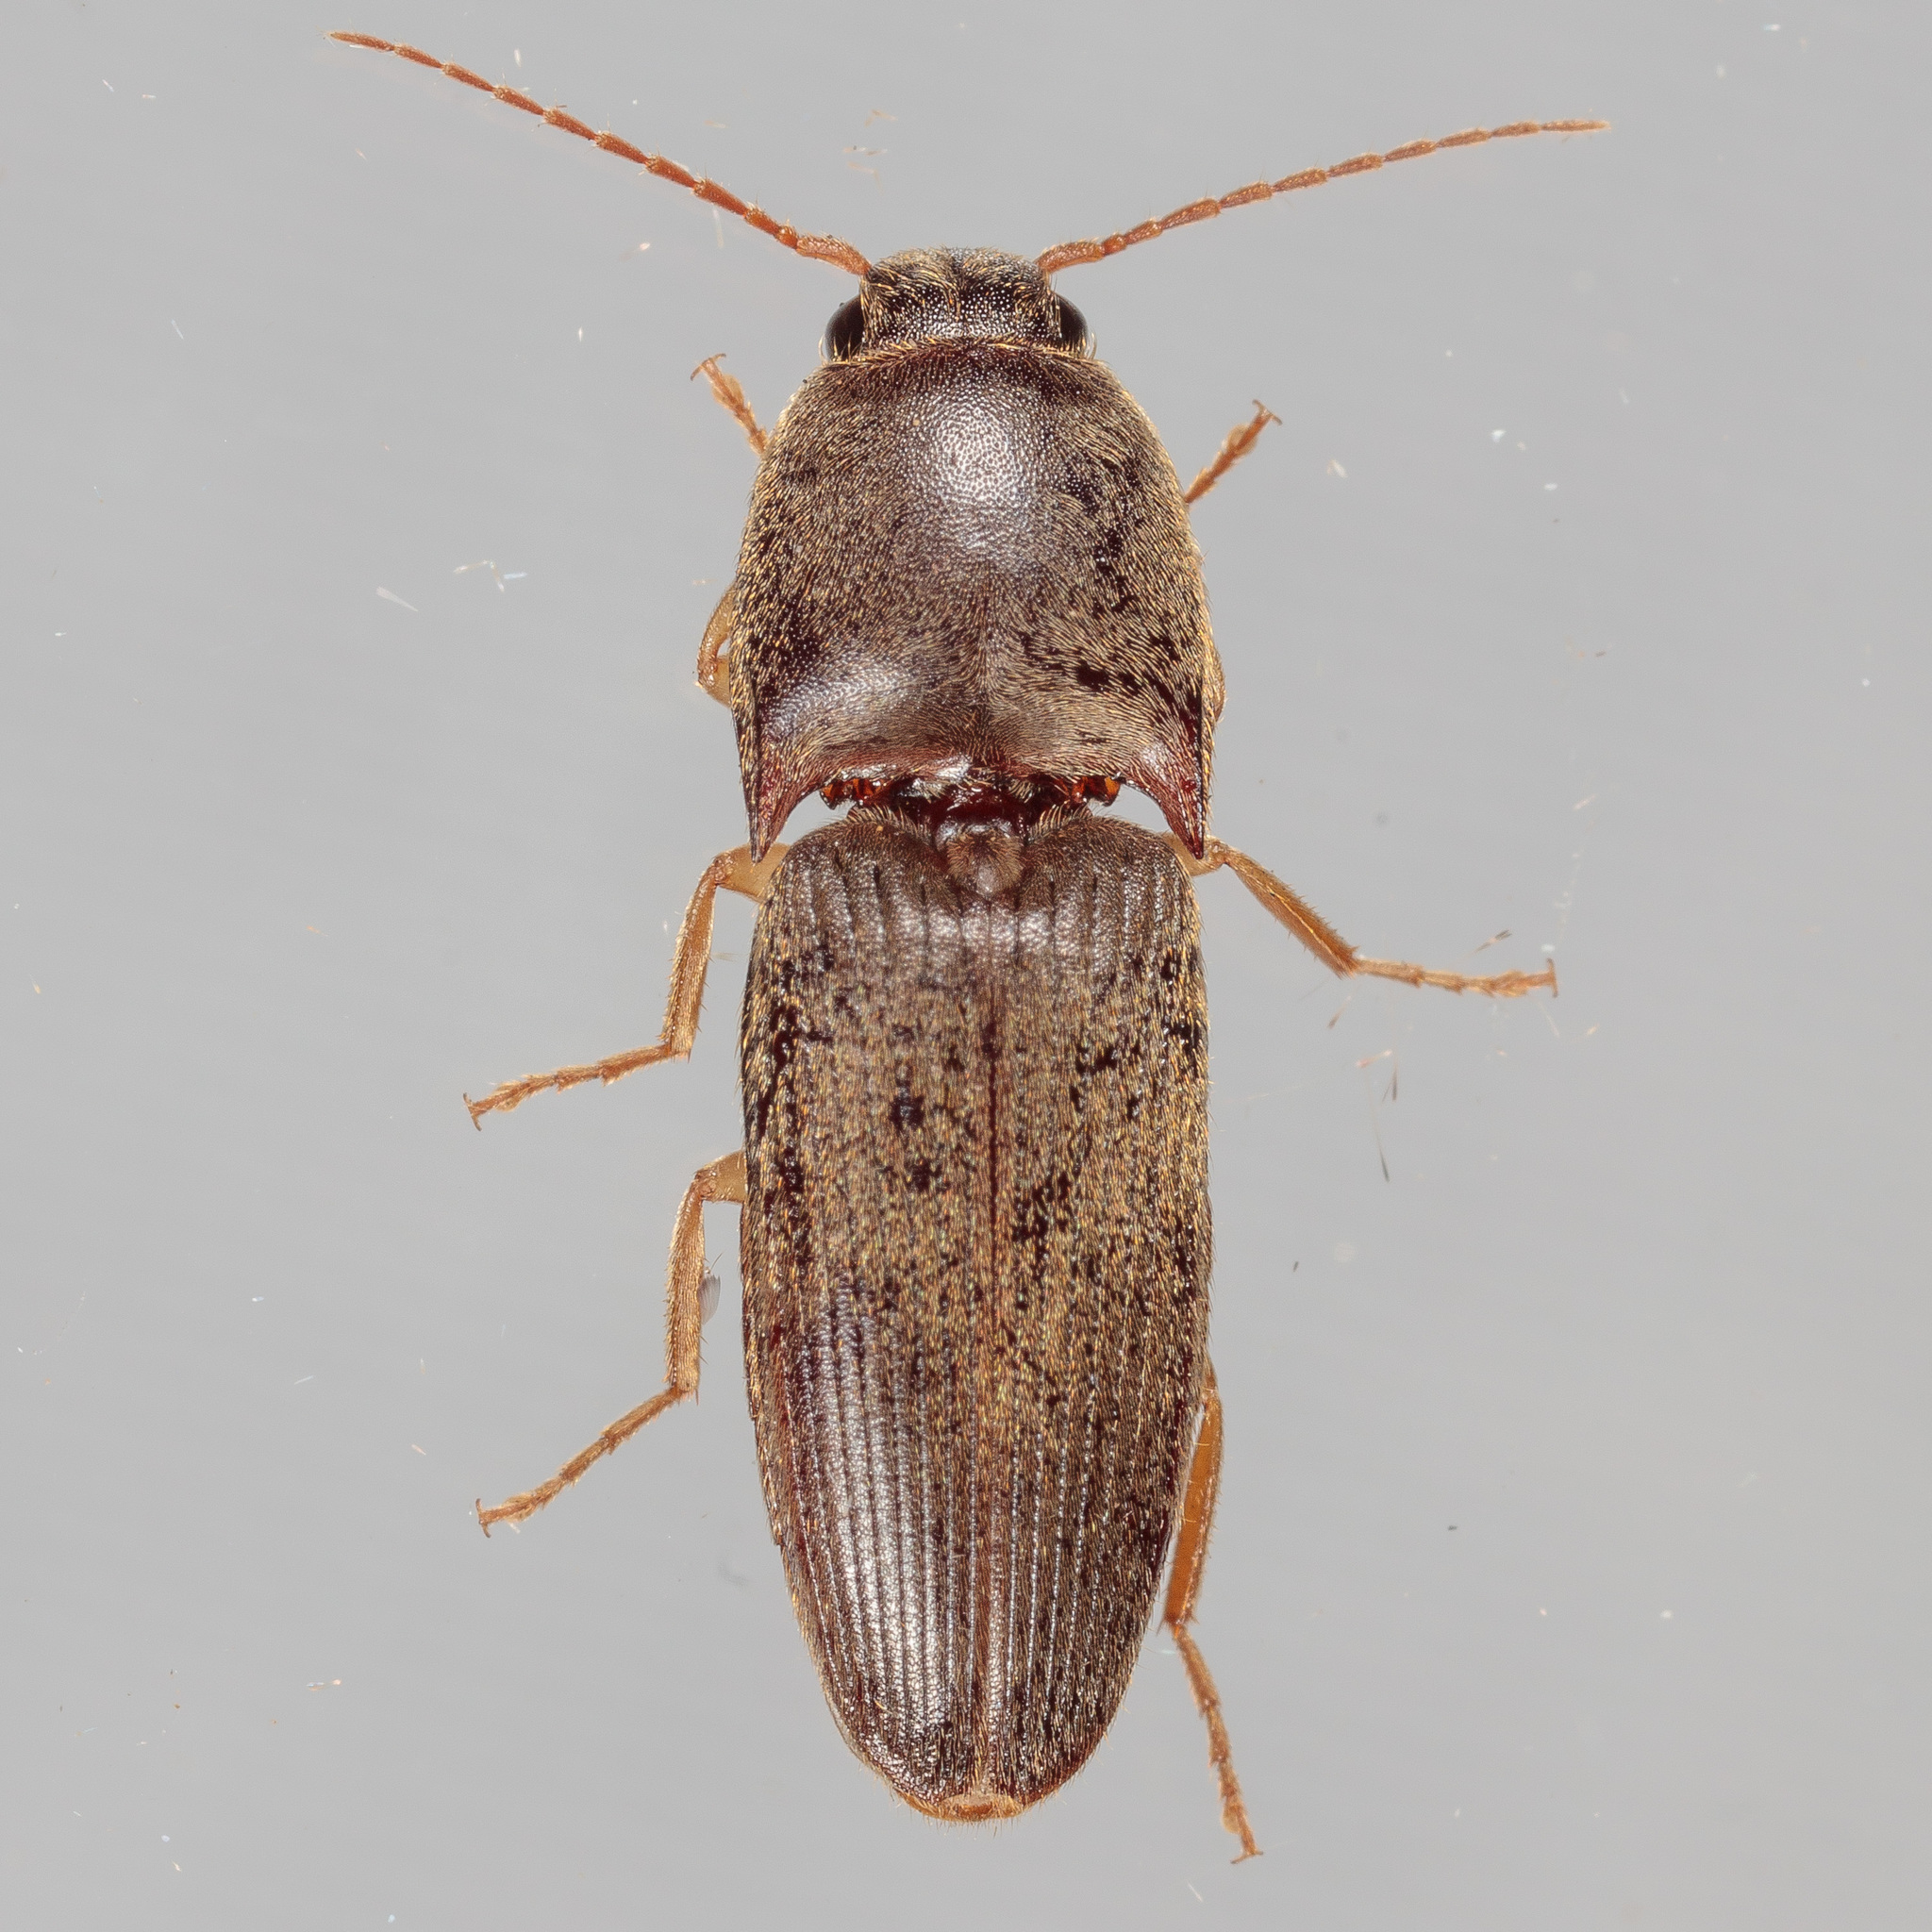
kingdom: Animalia
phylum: Arthropoda
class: Insecta
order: Coleoptera
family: Elateridae
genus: Conoderus
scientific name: Conoderus exsul
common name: Click beetle
